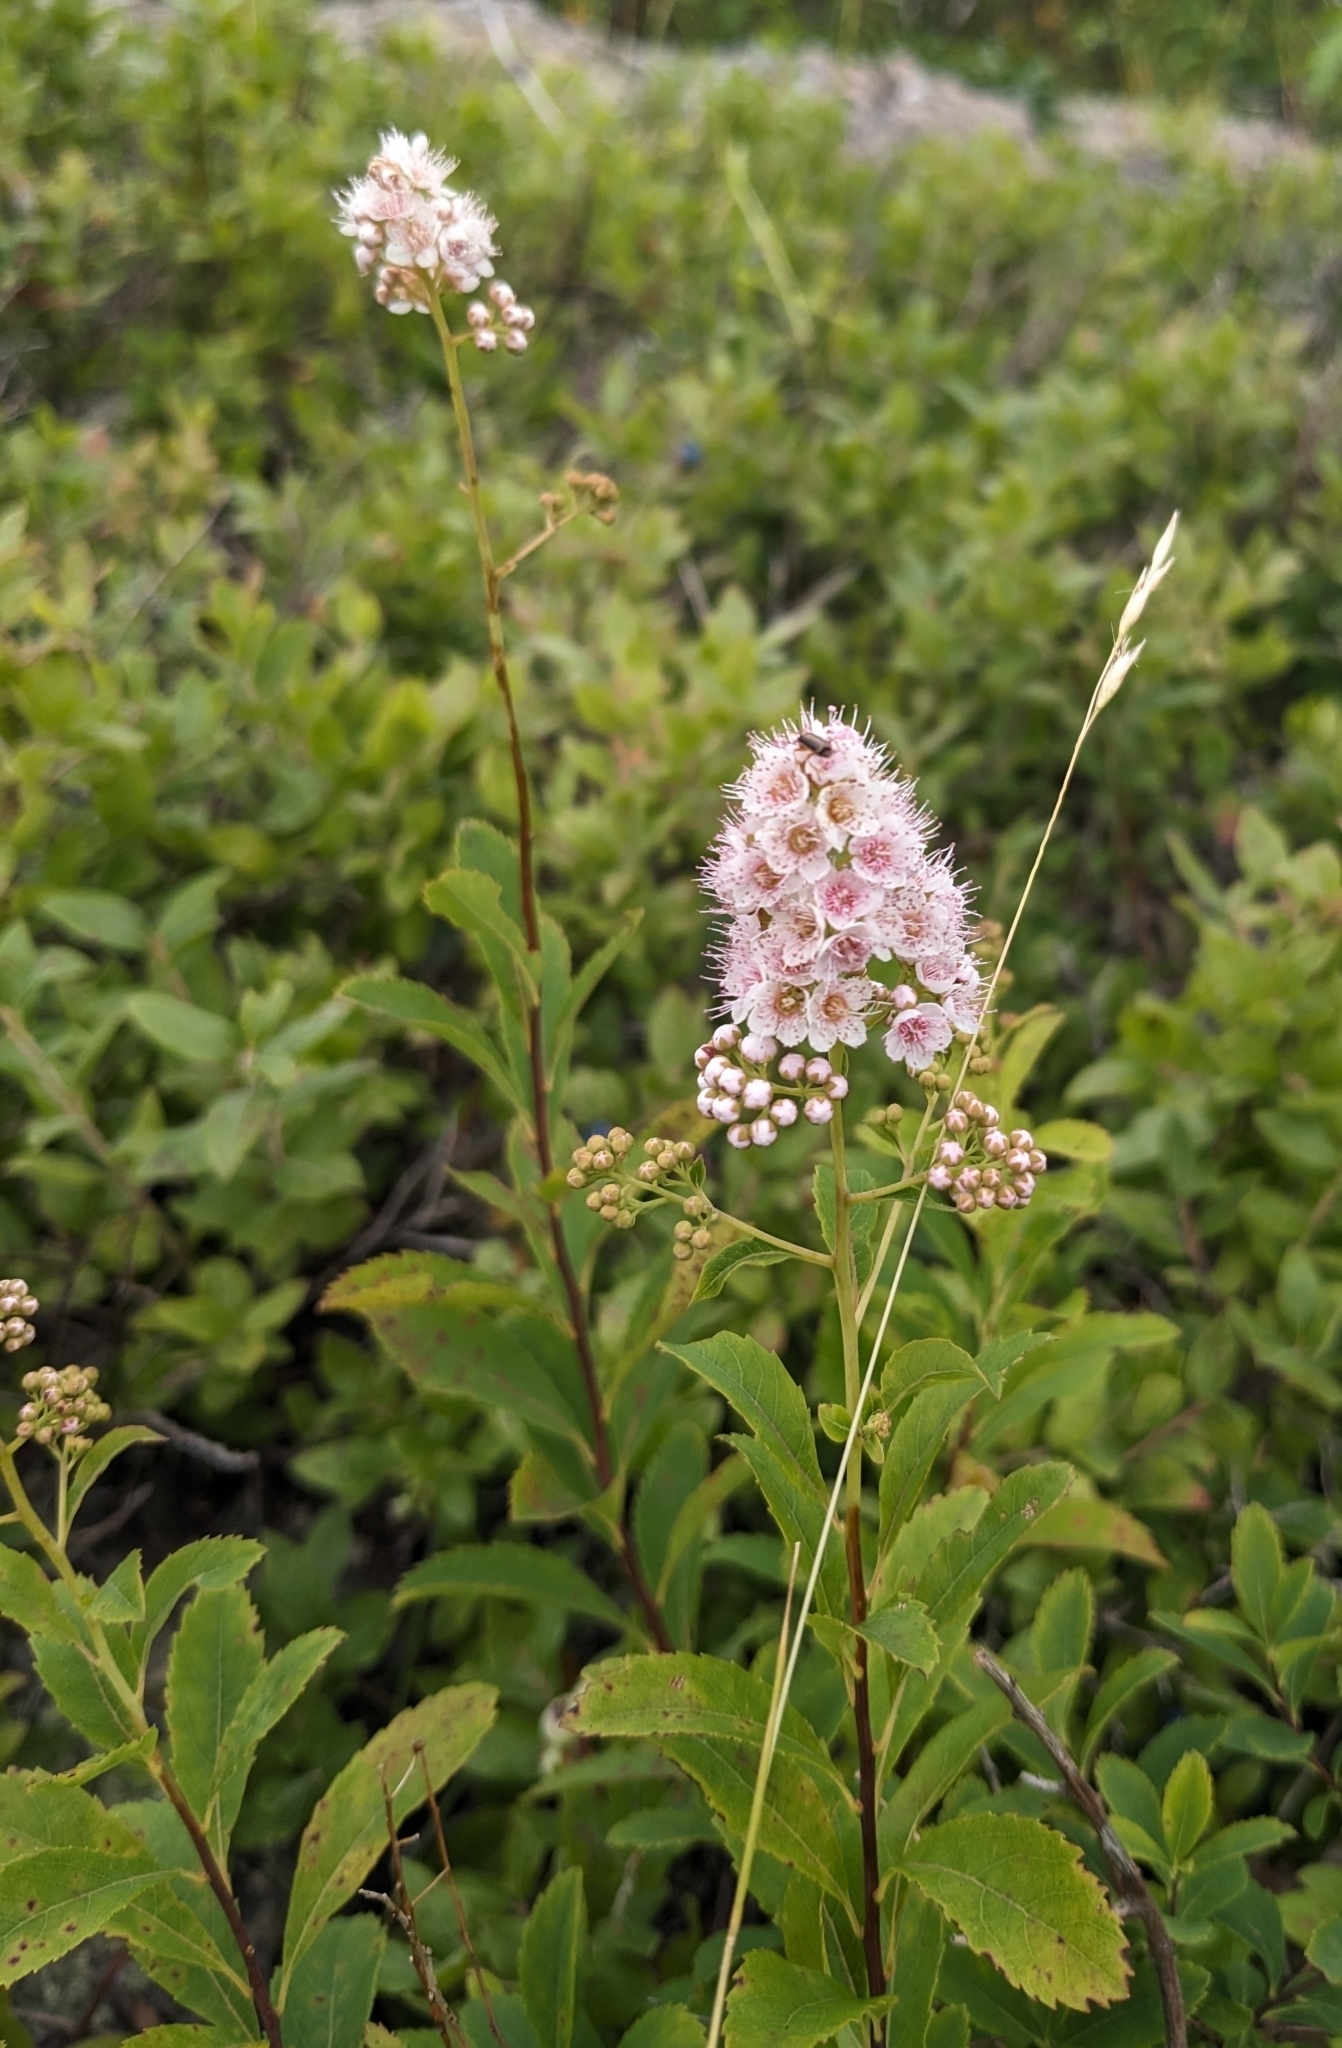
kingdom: Plantae
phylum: Tracheophyta
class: Magnoliopsida
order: Rosales
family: Rosaceae
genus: Spiraea
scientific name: Spiraea alba
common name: Pale bridewort
